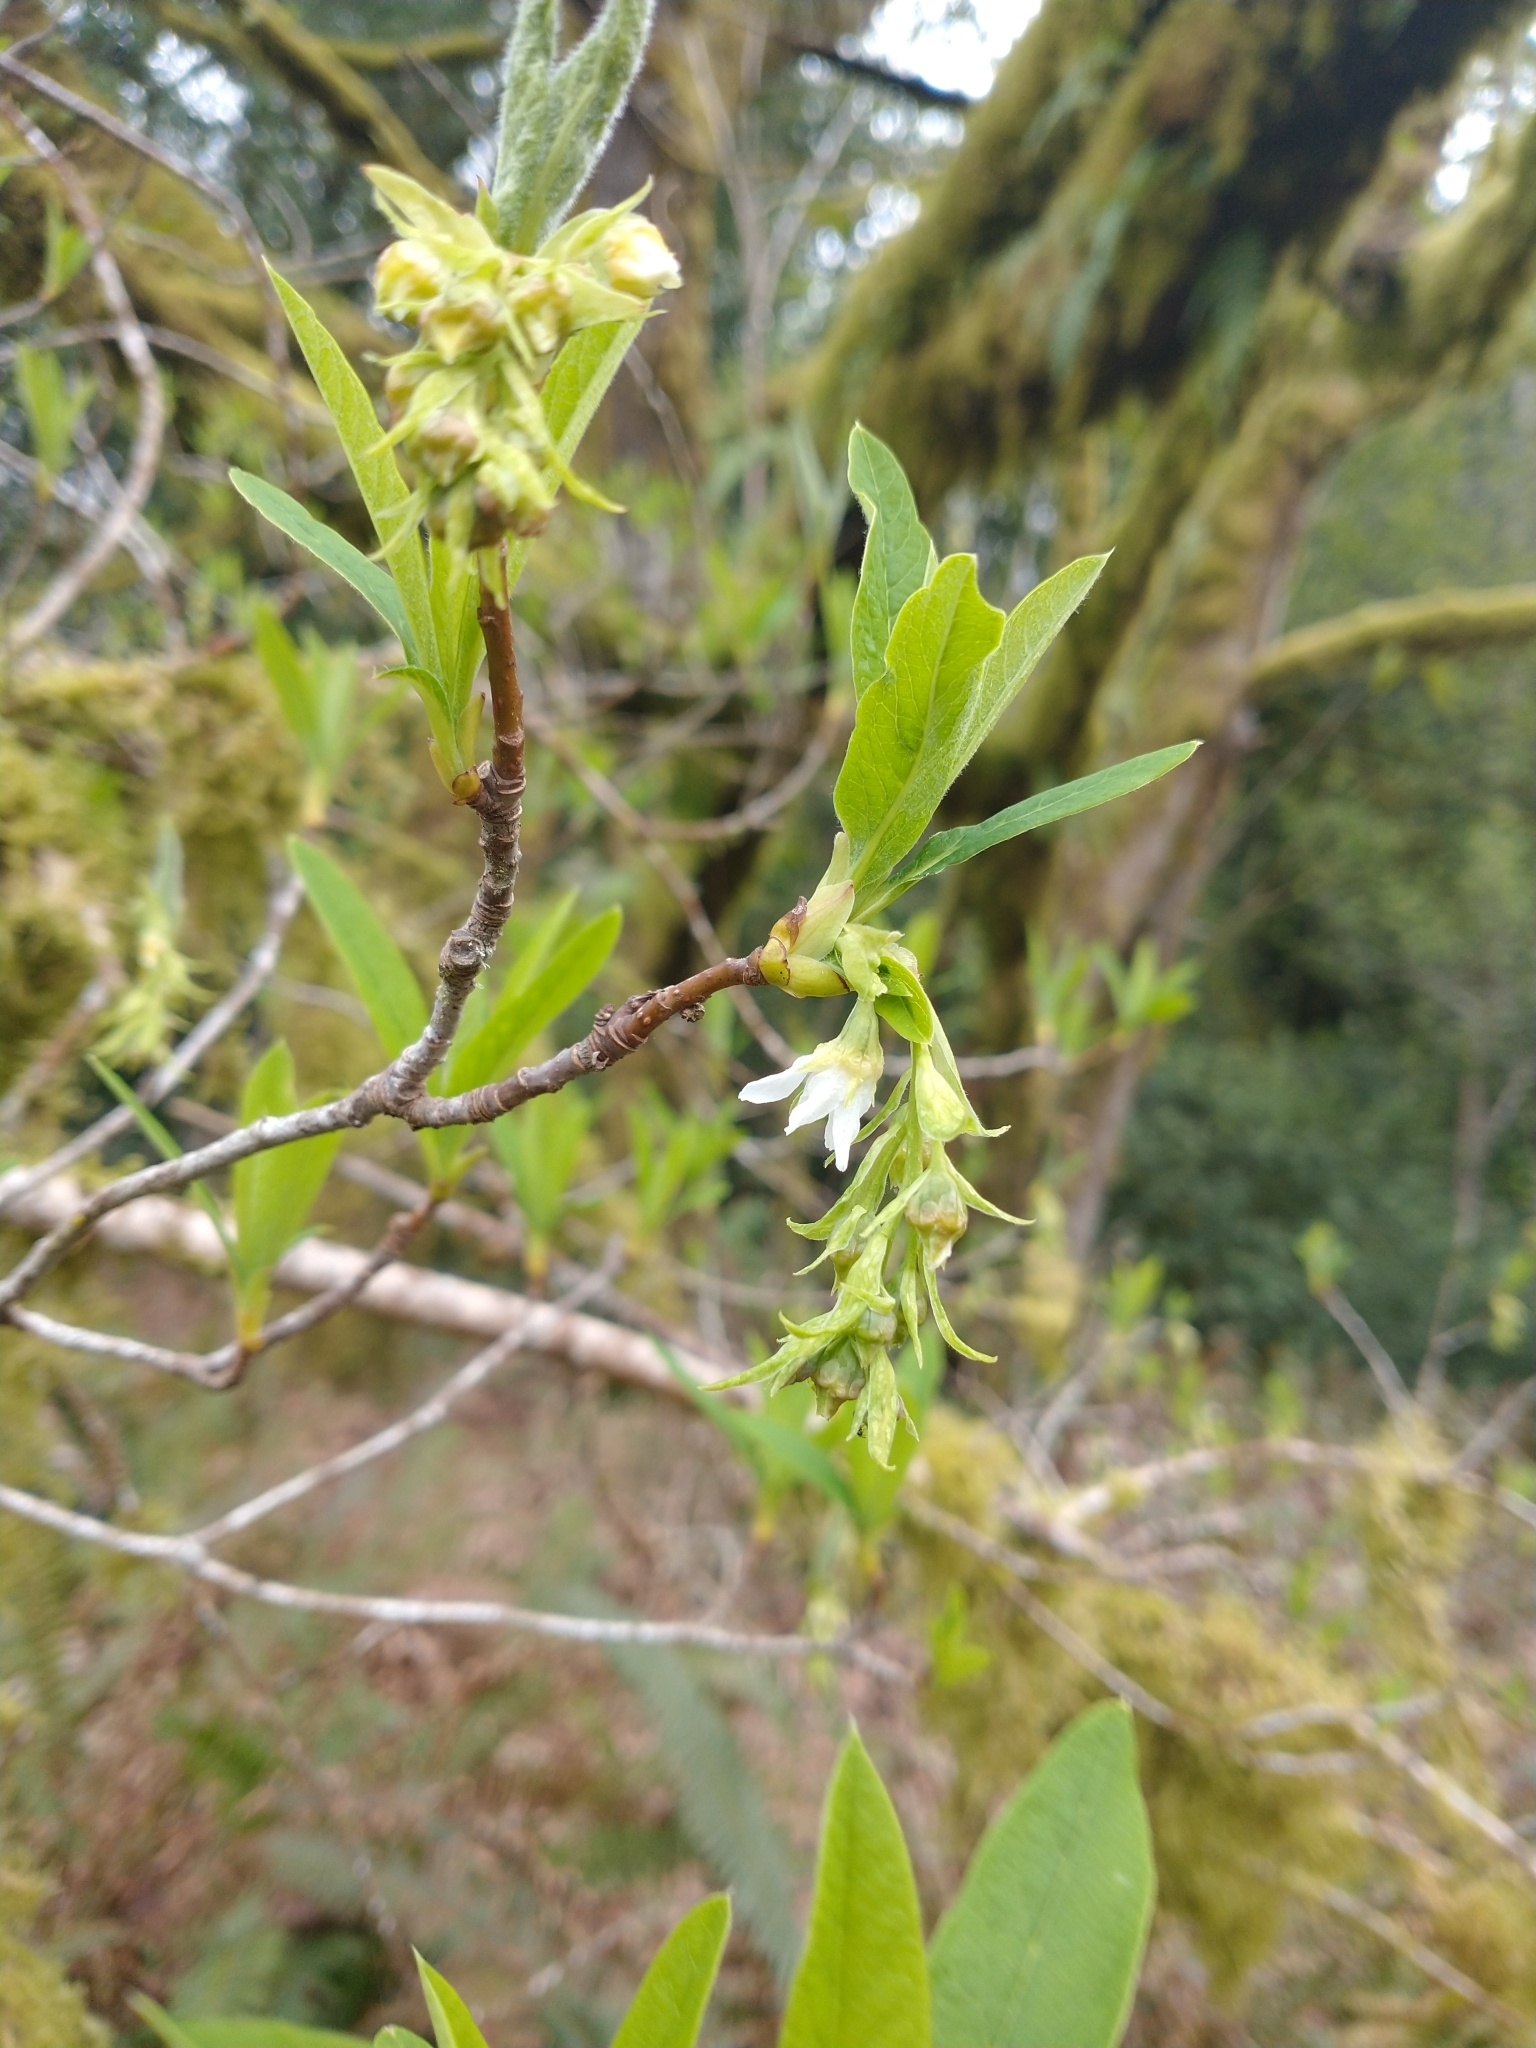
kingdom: Plantae
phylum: Tracheophyta
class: Magnoliopsida
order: Rosales
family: Rosaceae
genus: Oemleria
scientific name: Oemleria cerasiformis
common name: Osoberry
